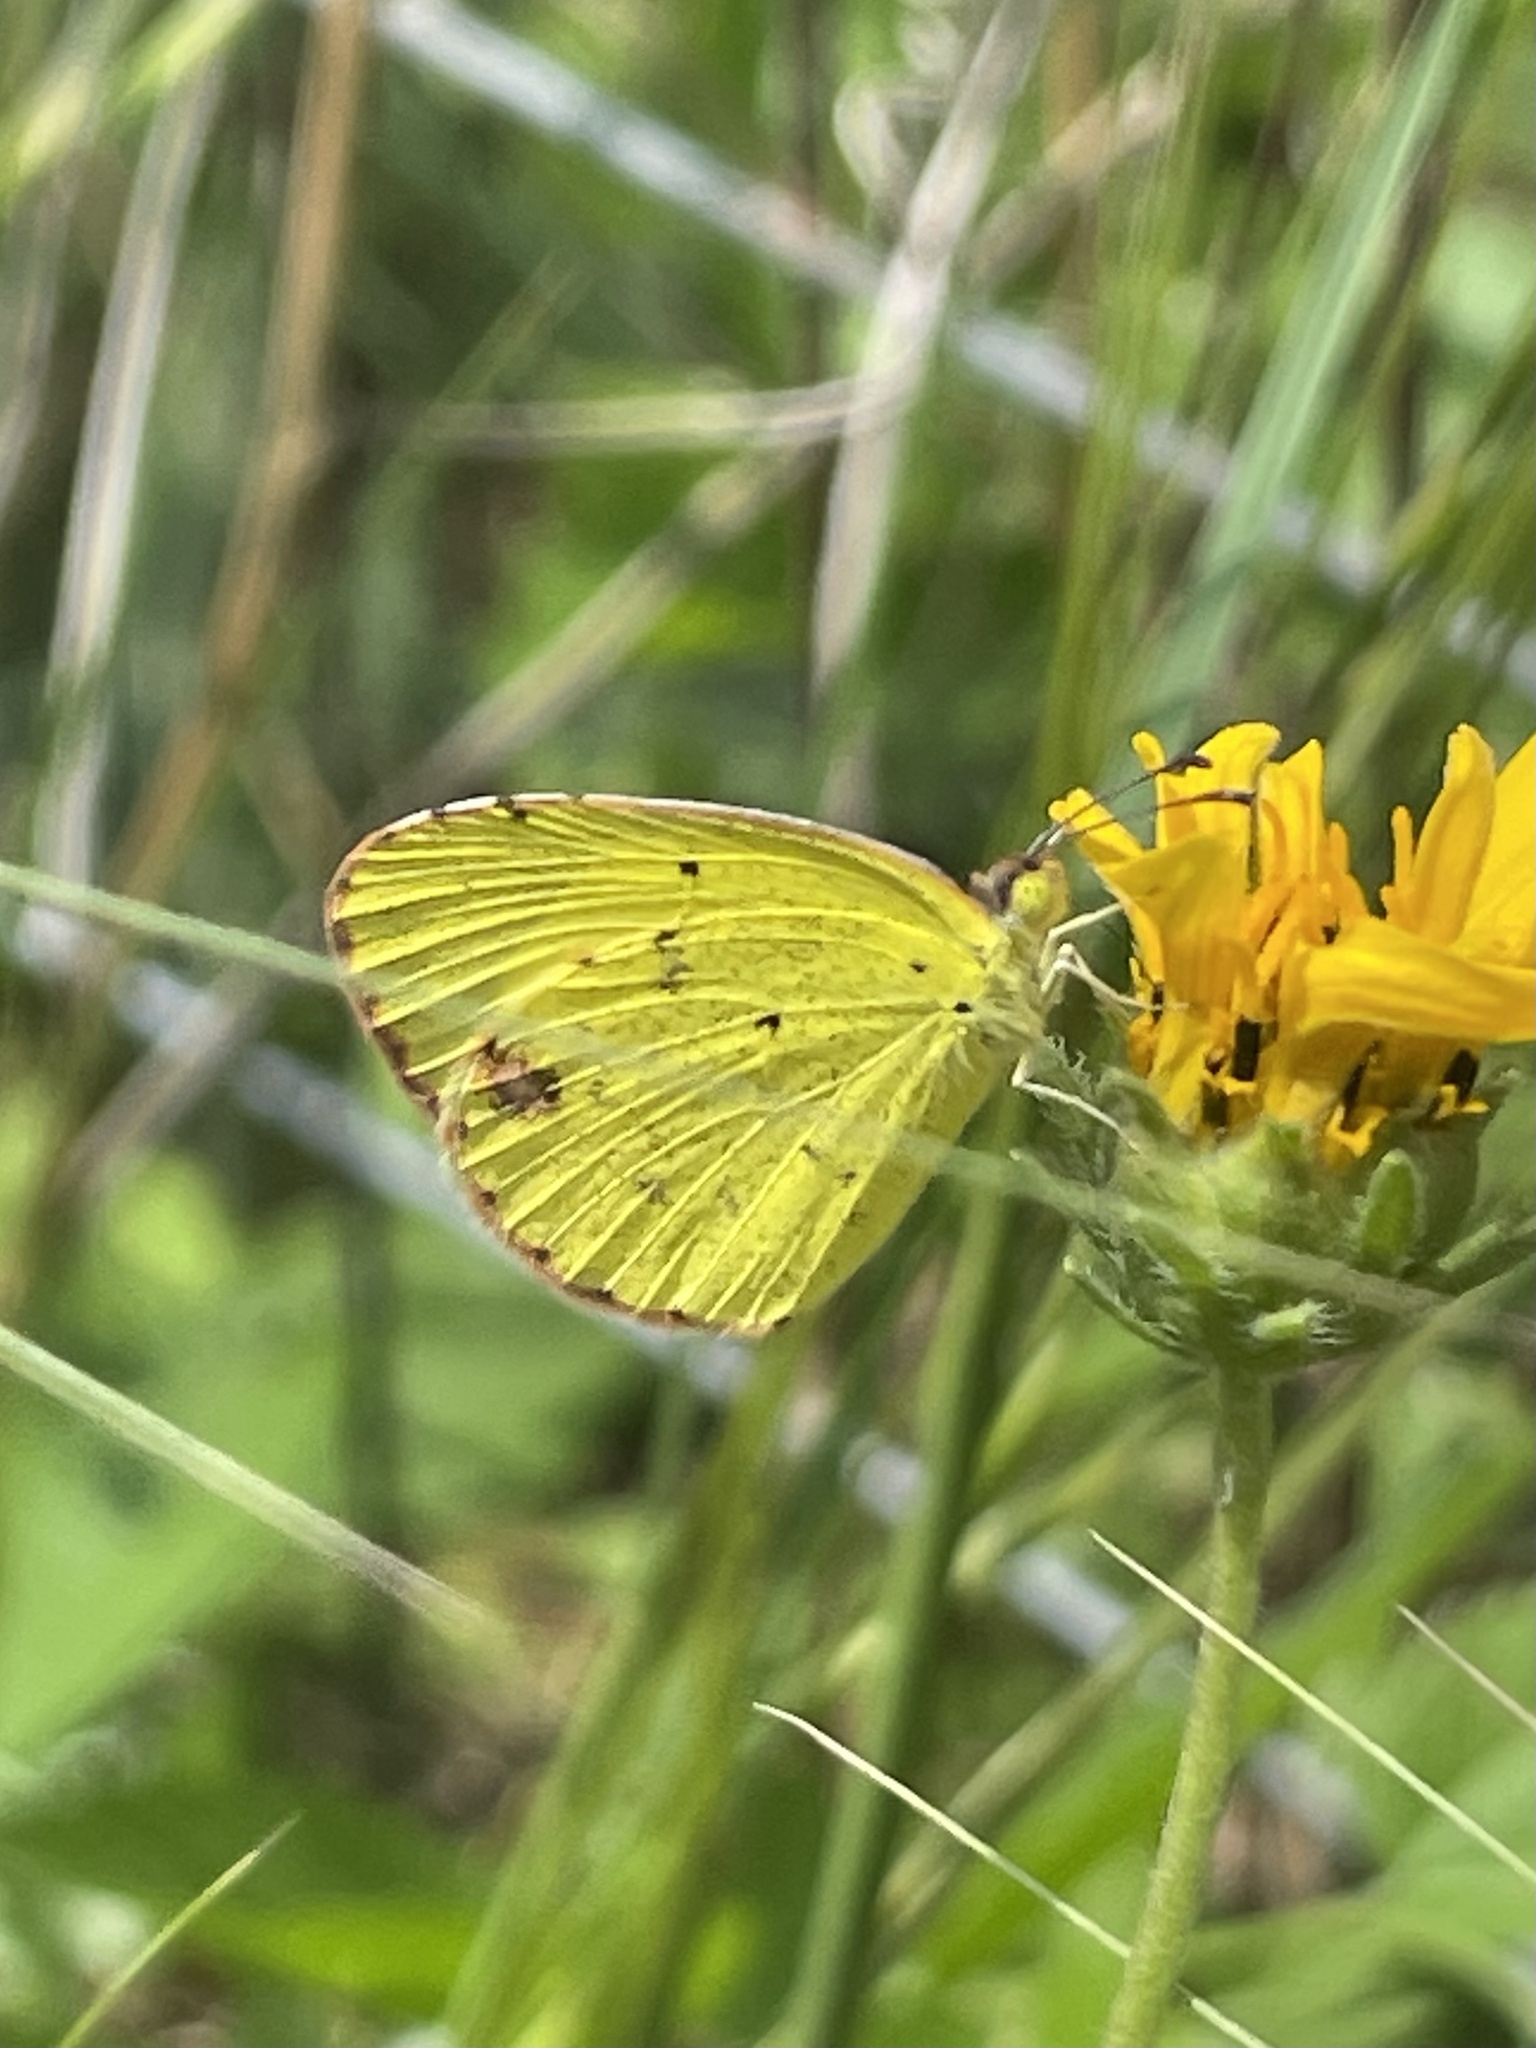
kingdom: Animalia
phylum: Arthropoda
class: Insecta
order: Lepidoptera
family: Pieridae
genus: Pyrisitia
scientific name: Pyrisitia lisa
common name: Little yellow
